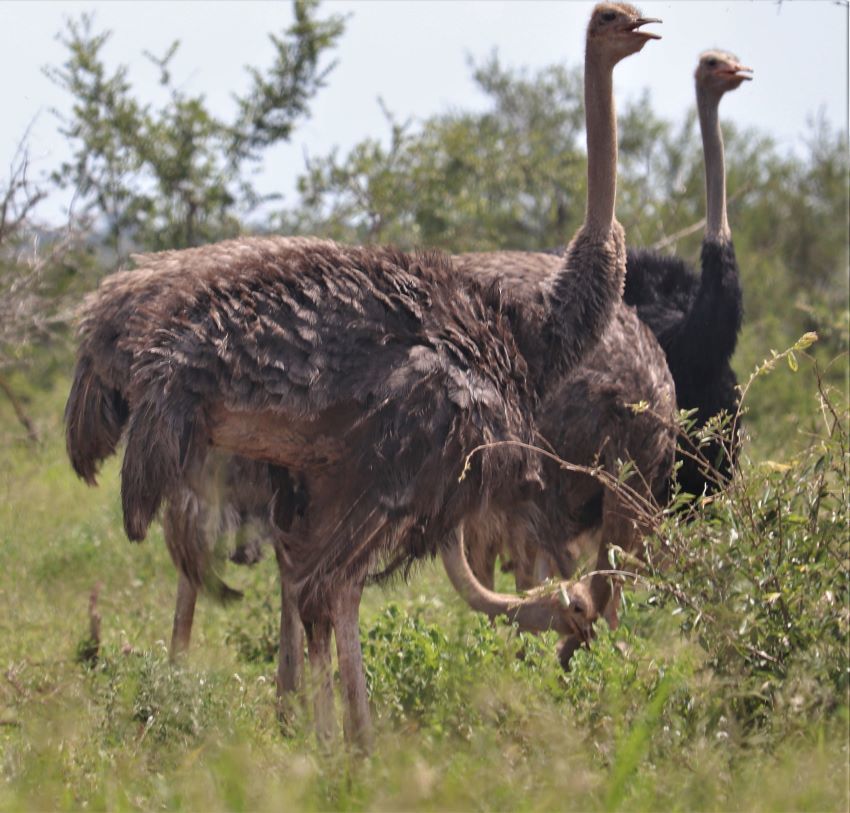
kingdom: Animalia
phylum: Chordata
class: Aves
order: Struthioniformes
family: Struthionidae
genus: Struthio
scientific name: Struthio camelus
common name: Common ostrich
